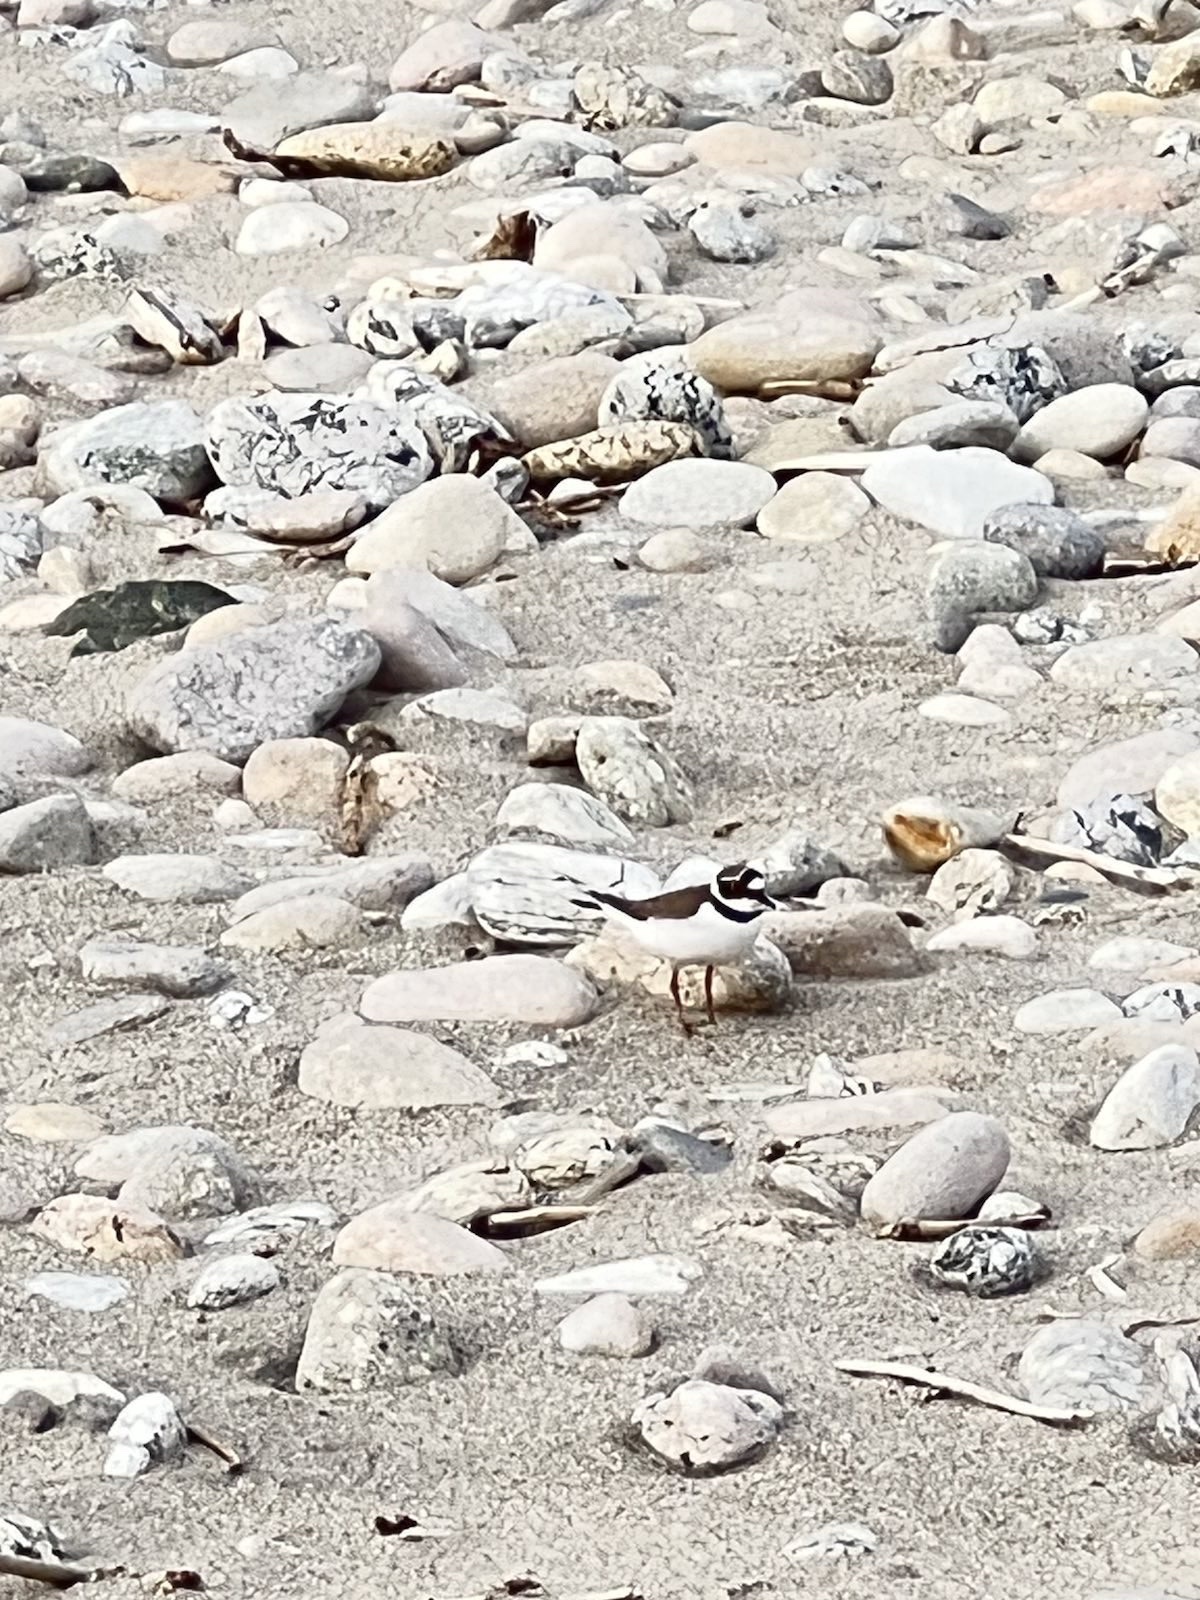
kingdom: Animalia
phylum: Chordata
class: Aves
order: Charadriiformes
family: Charadriidae
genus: Charadrius
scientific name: Charadrius dubius
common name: Little ringed plover
